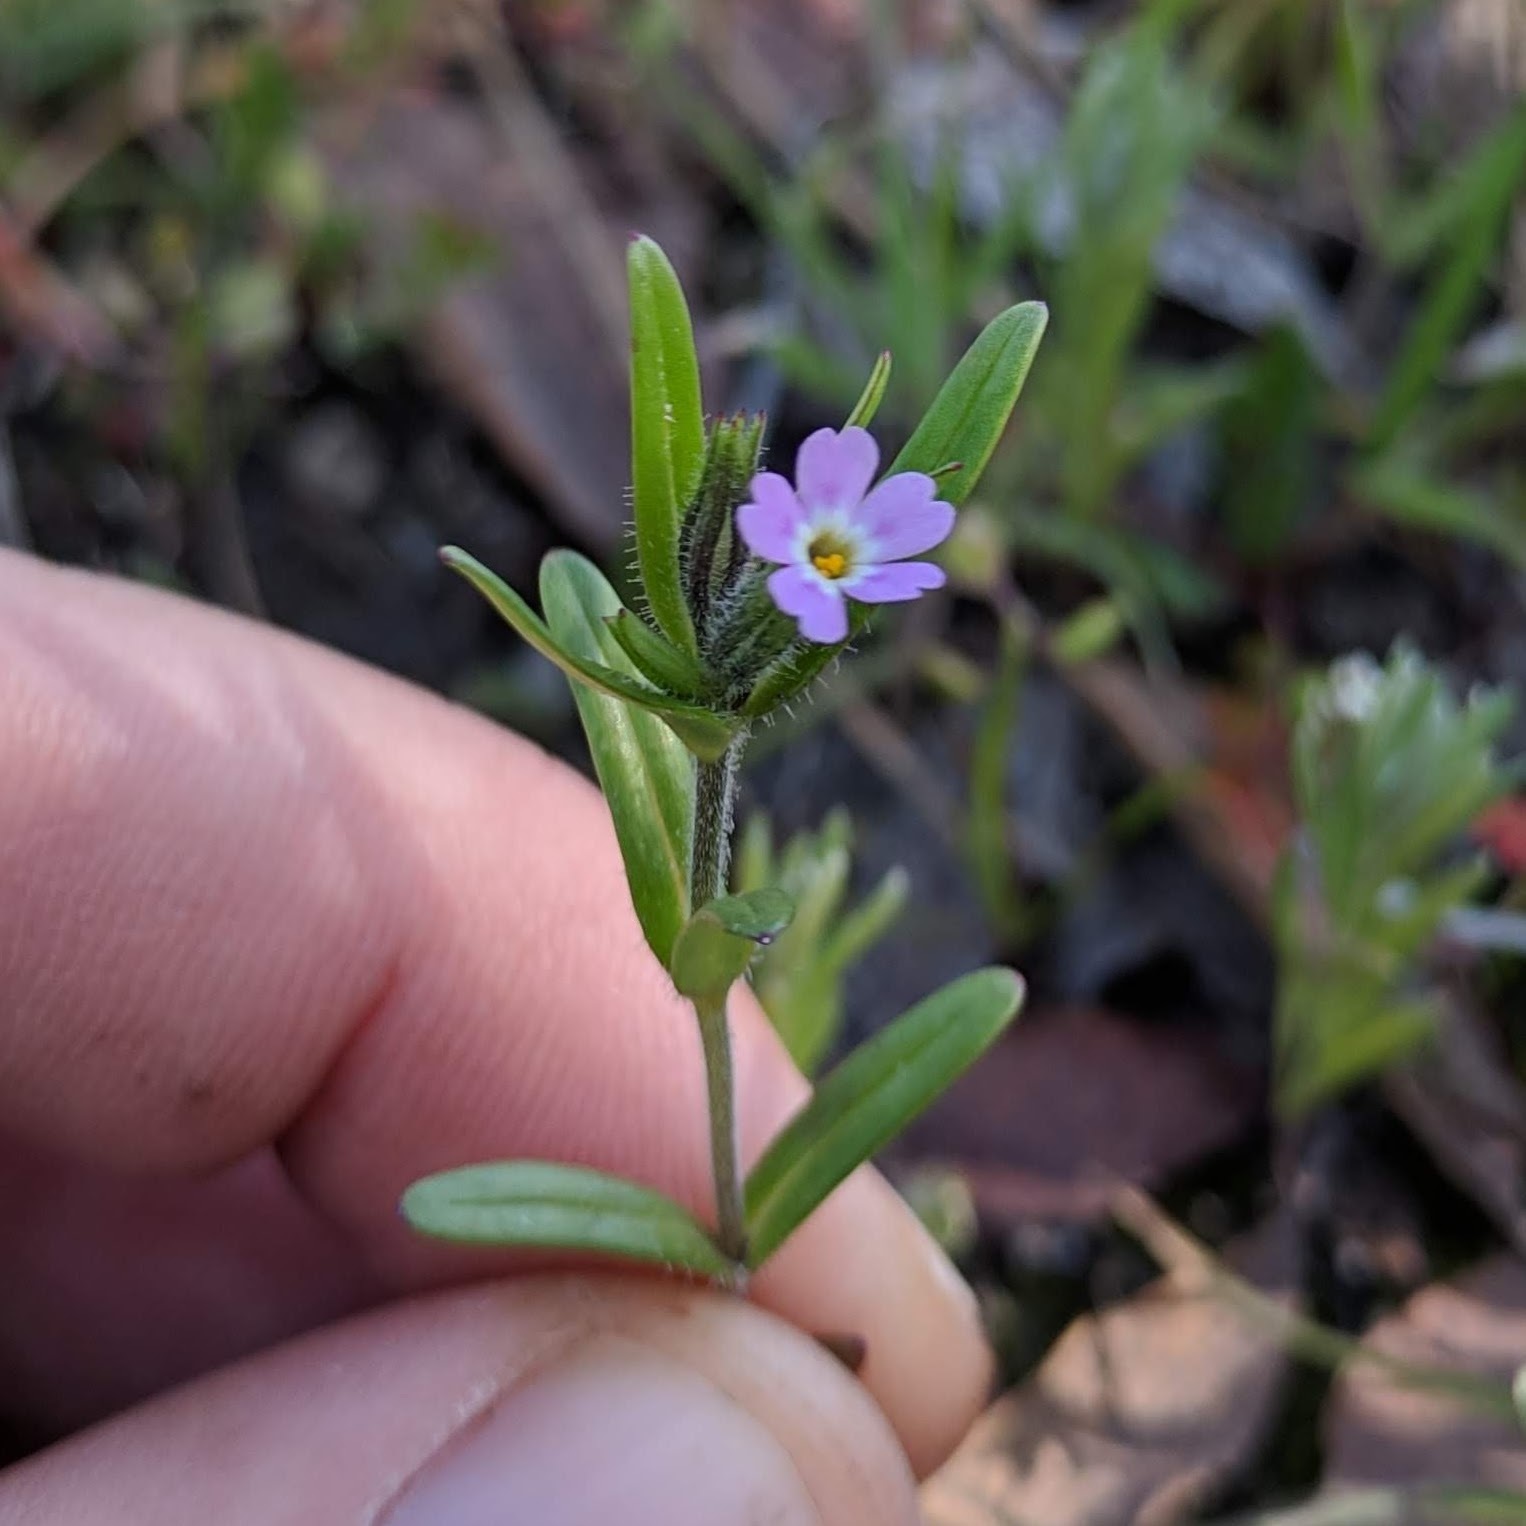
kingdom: Plantae
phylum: Tracheophyta
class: Magnoliopsida
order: Ericales
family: Polemoniaceae
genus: Phlox
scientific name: Phlox gracilis
